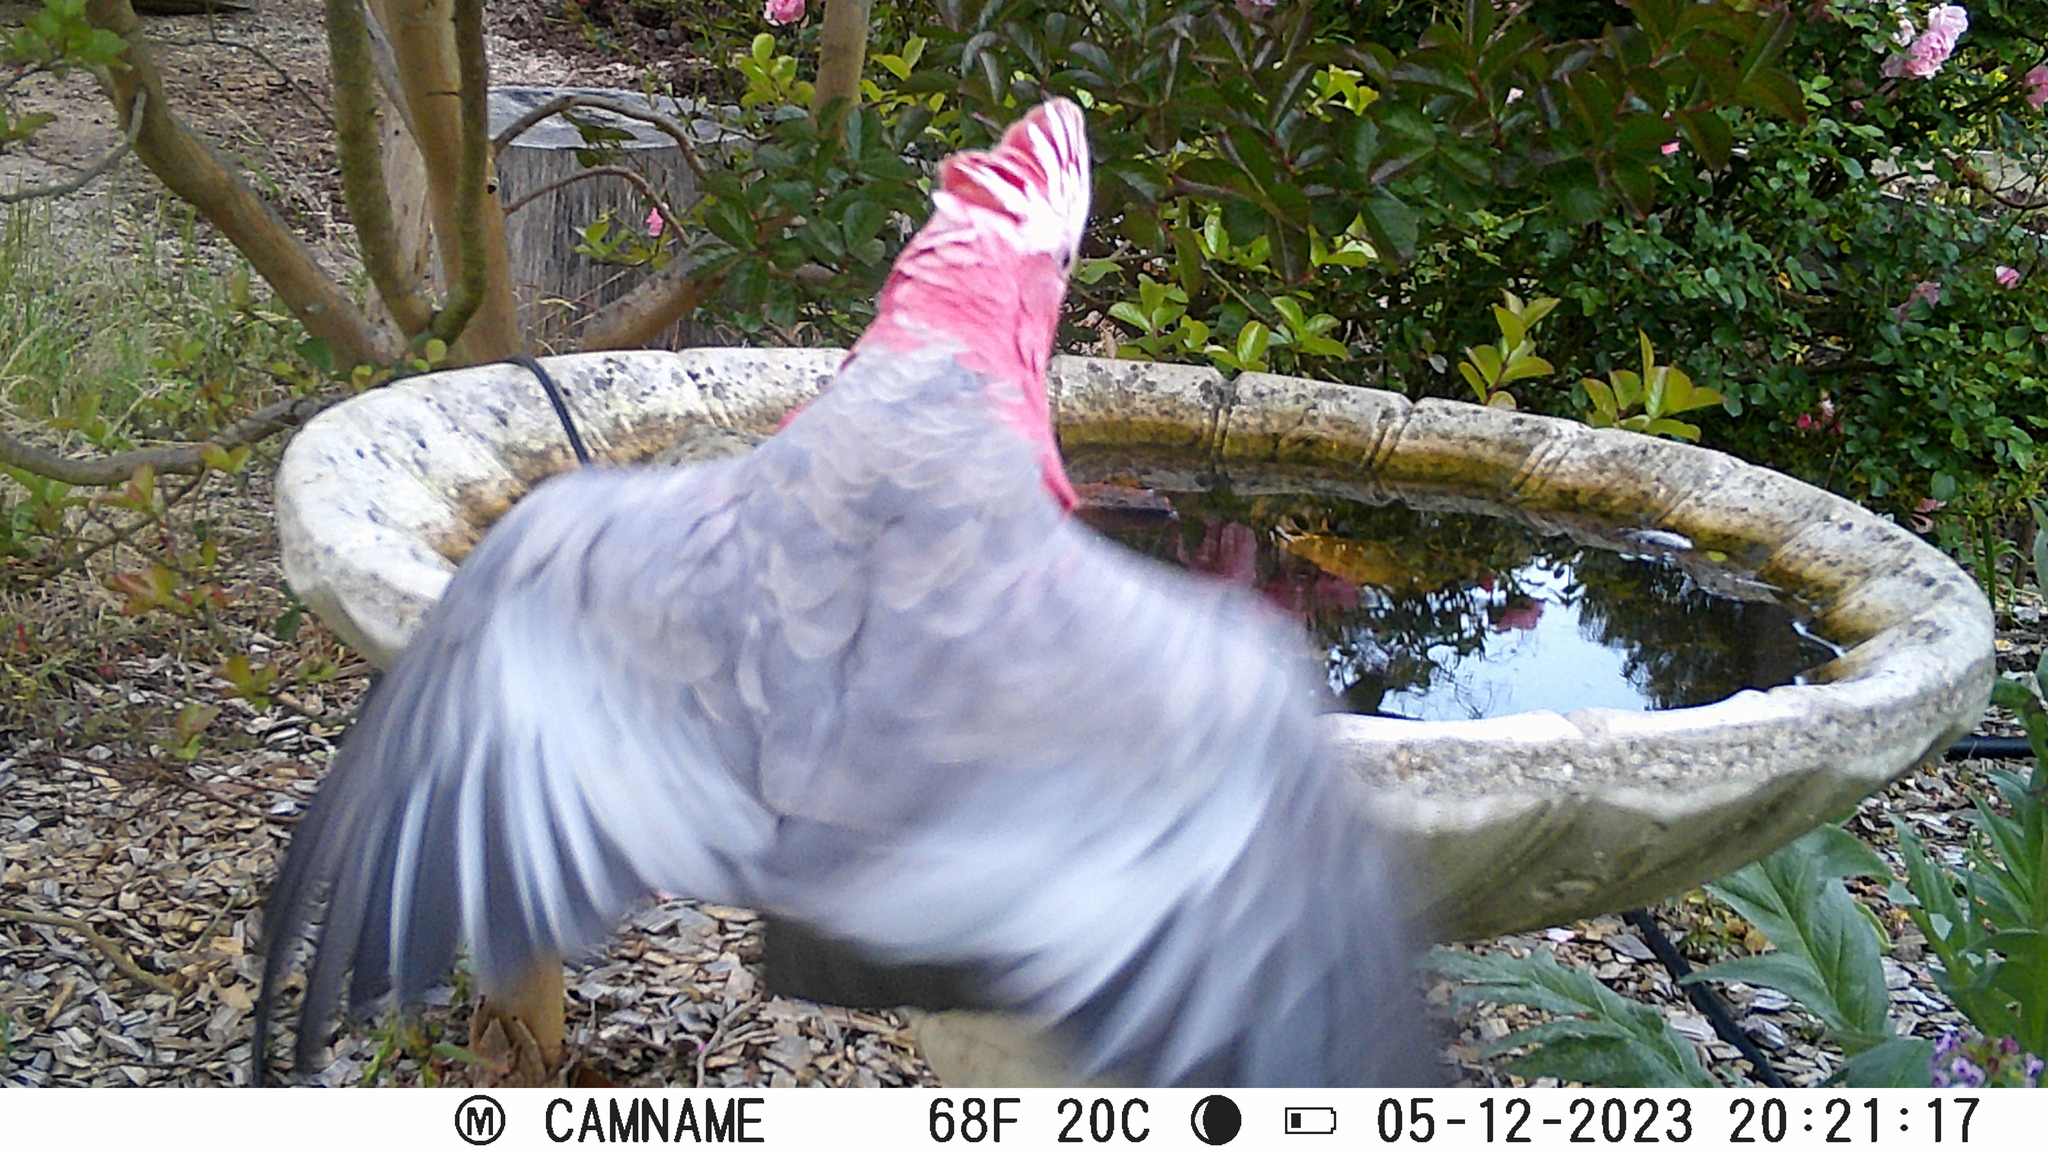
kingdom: Animalia
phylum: Chordata
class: Aves
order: Psittaciformes
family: Psittacidae
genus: Eolophus
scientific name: Eolophus roseicapilla
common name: Galah
